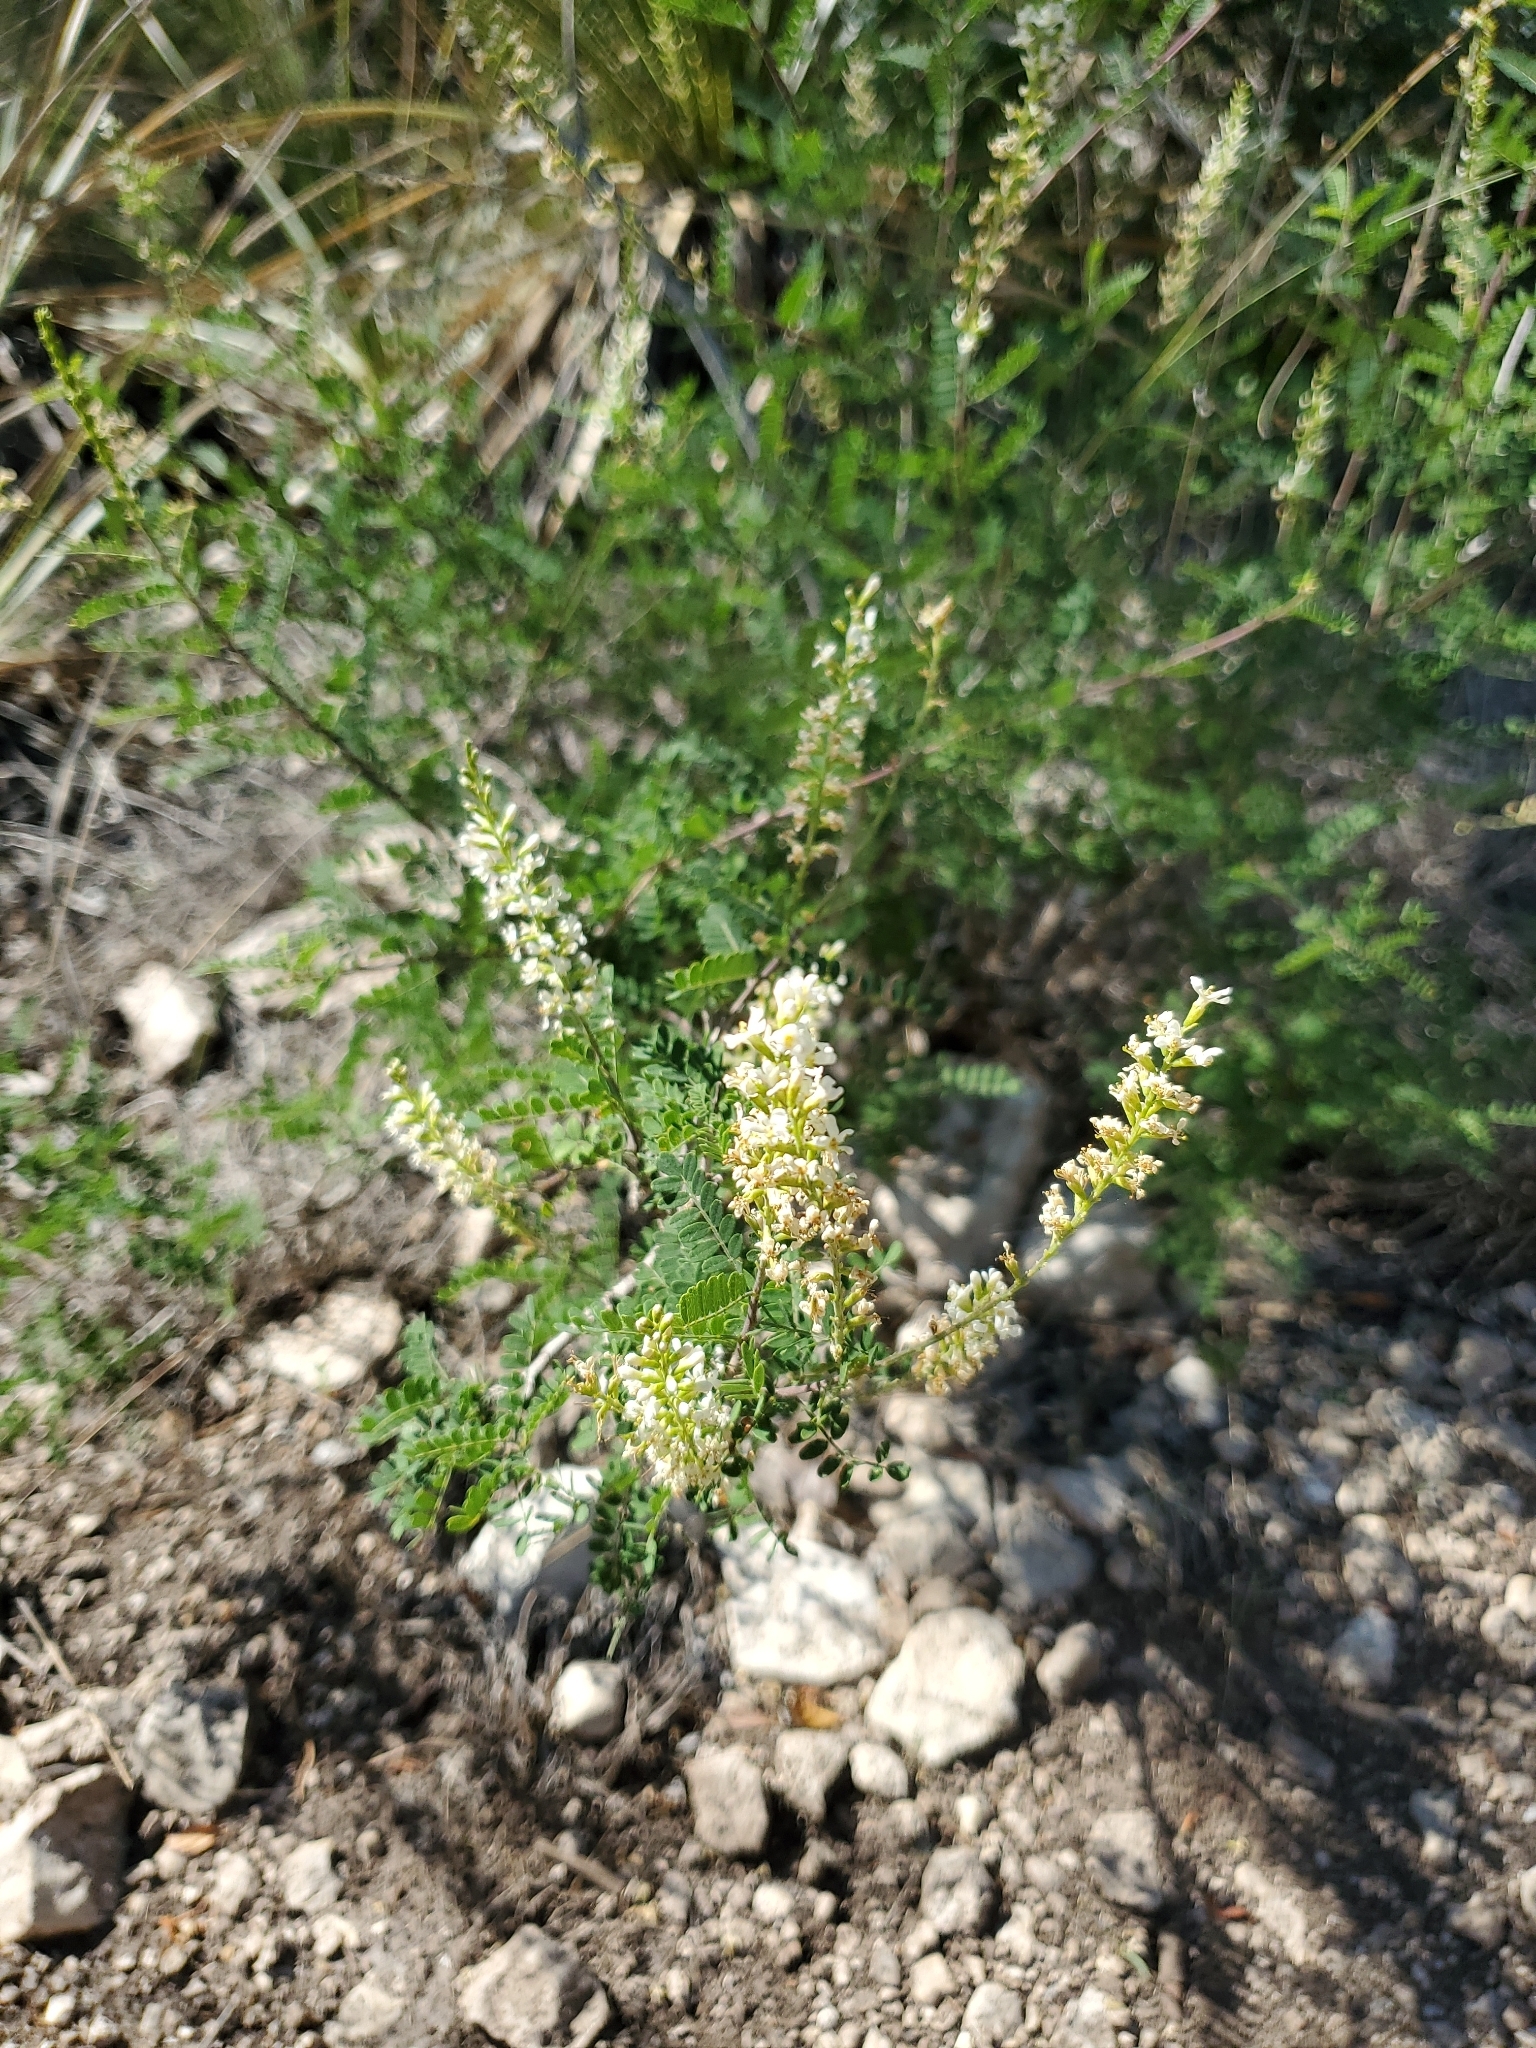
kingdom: Plantae
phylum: Tracheophyta
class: Magnoliopsida
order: Fabales
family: Fabaceae
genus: Eysenhardtia
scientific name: Eysenhardtia texana
